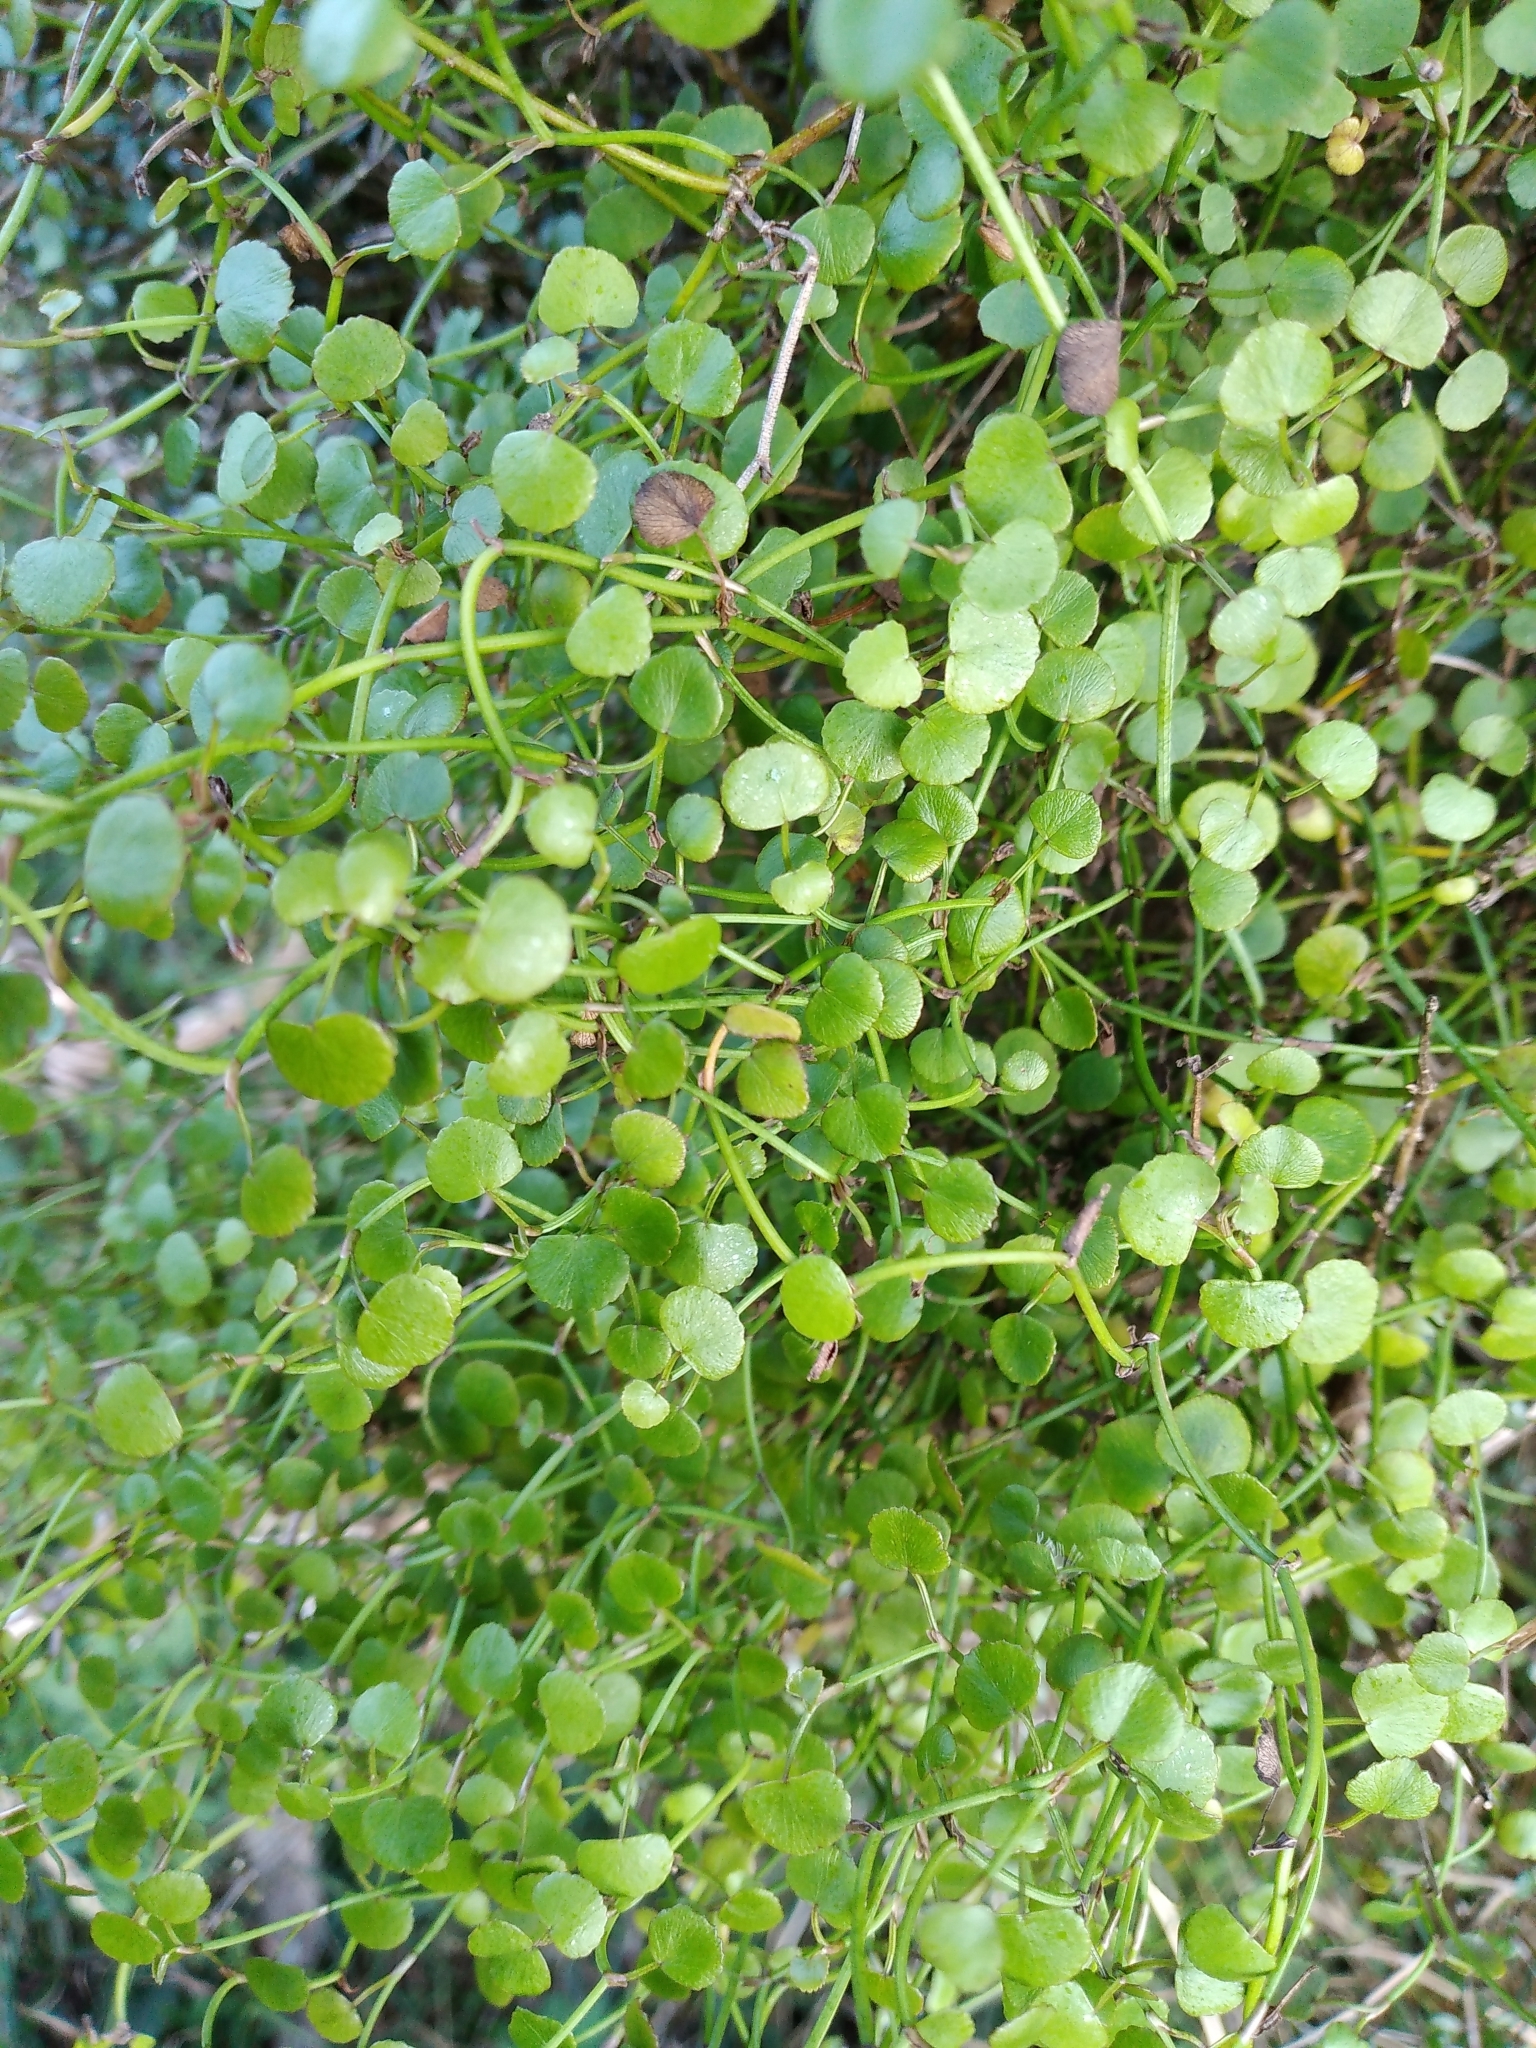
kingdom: Plantae
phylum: Tracheophyta
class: Magnoliopsida
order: Apiales
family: Apiaceae
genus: Scandia
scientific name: Scandia geniculata
